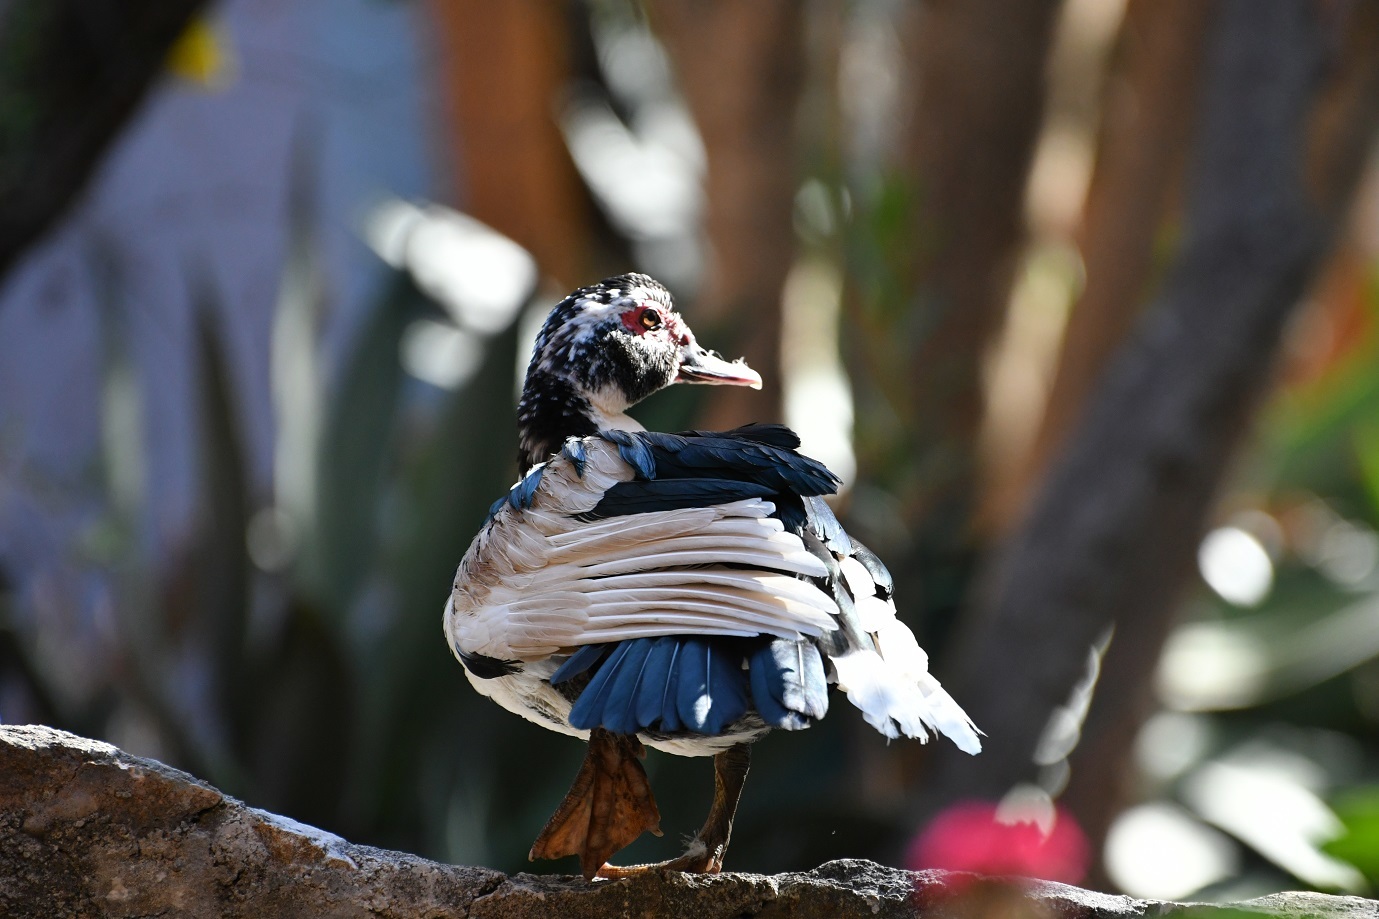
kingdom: Animalia
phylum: Chordata
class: Aves
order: Anseriformes
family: Anatidae
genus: Cairina
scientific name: Cairina moschata
